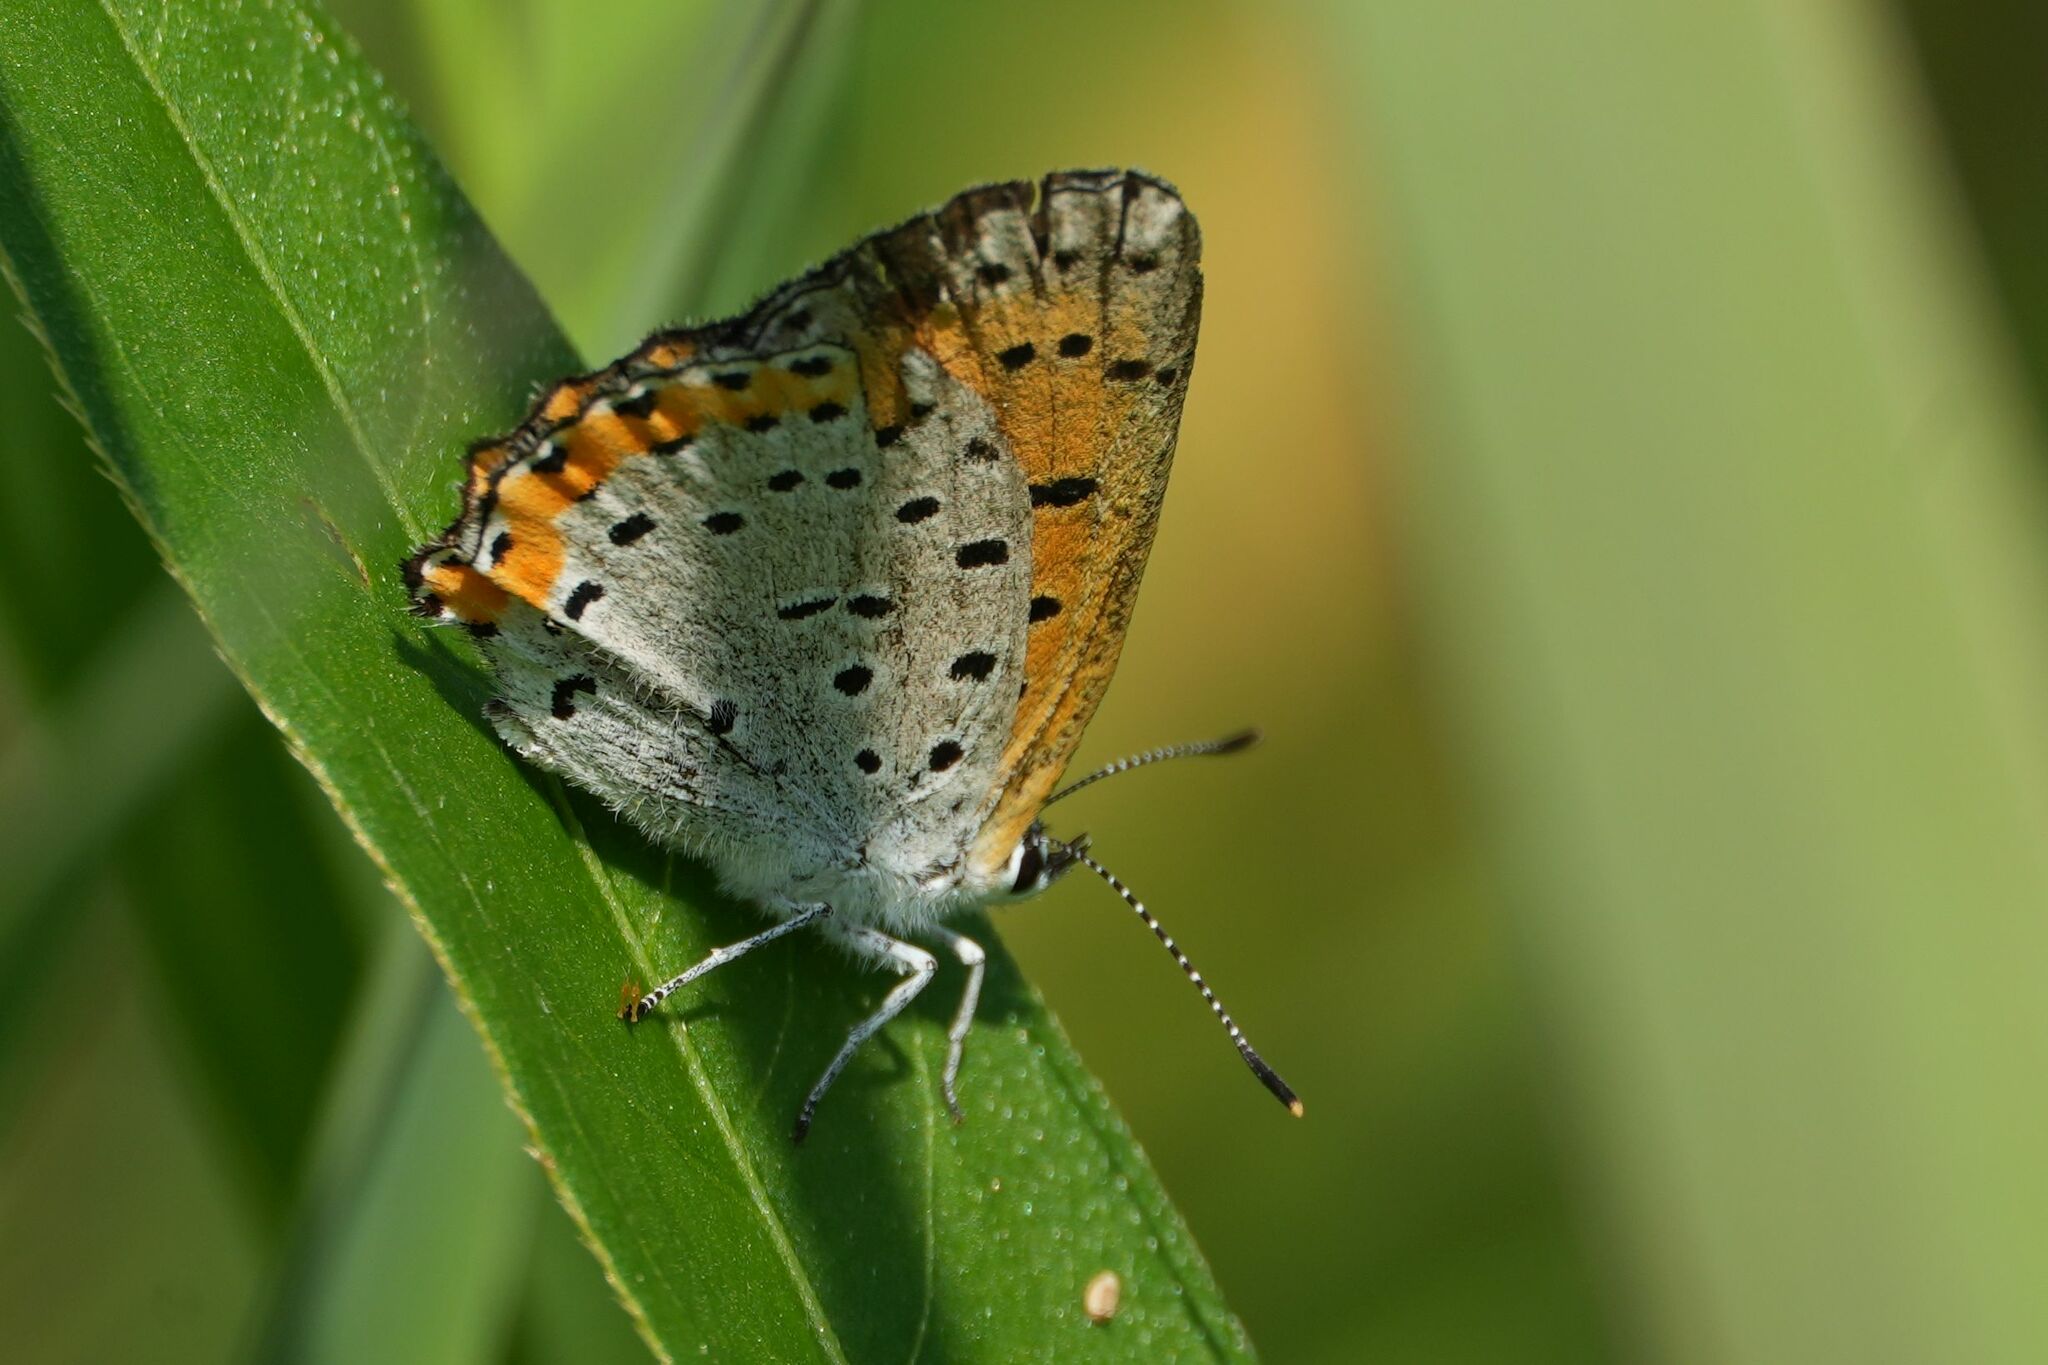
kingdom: Animalia
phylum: Arthropoda
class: Insecta
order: Lepidoptera
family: Lycaenidae
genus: Tharsalea
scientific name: Tharsalea hyllus
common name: Bronze copper
